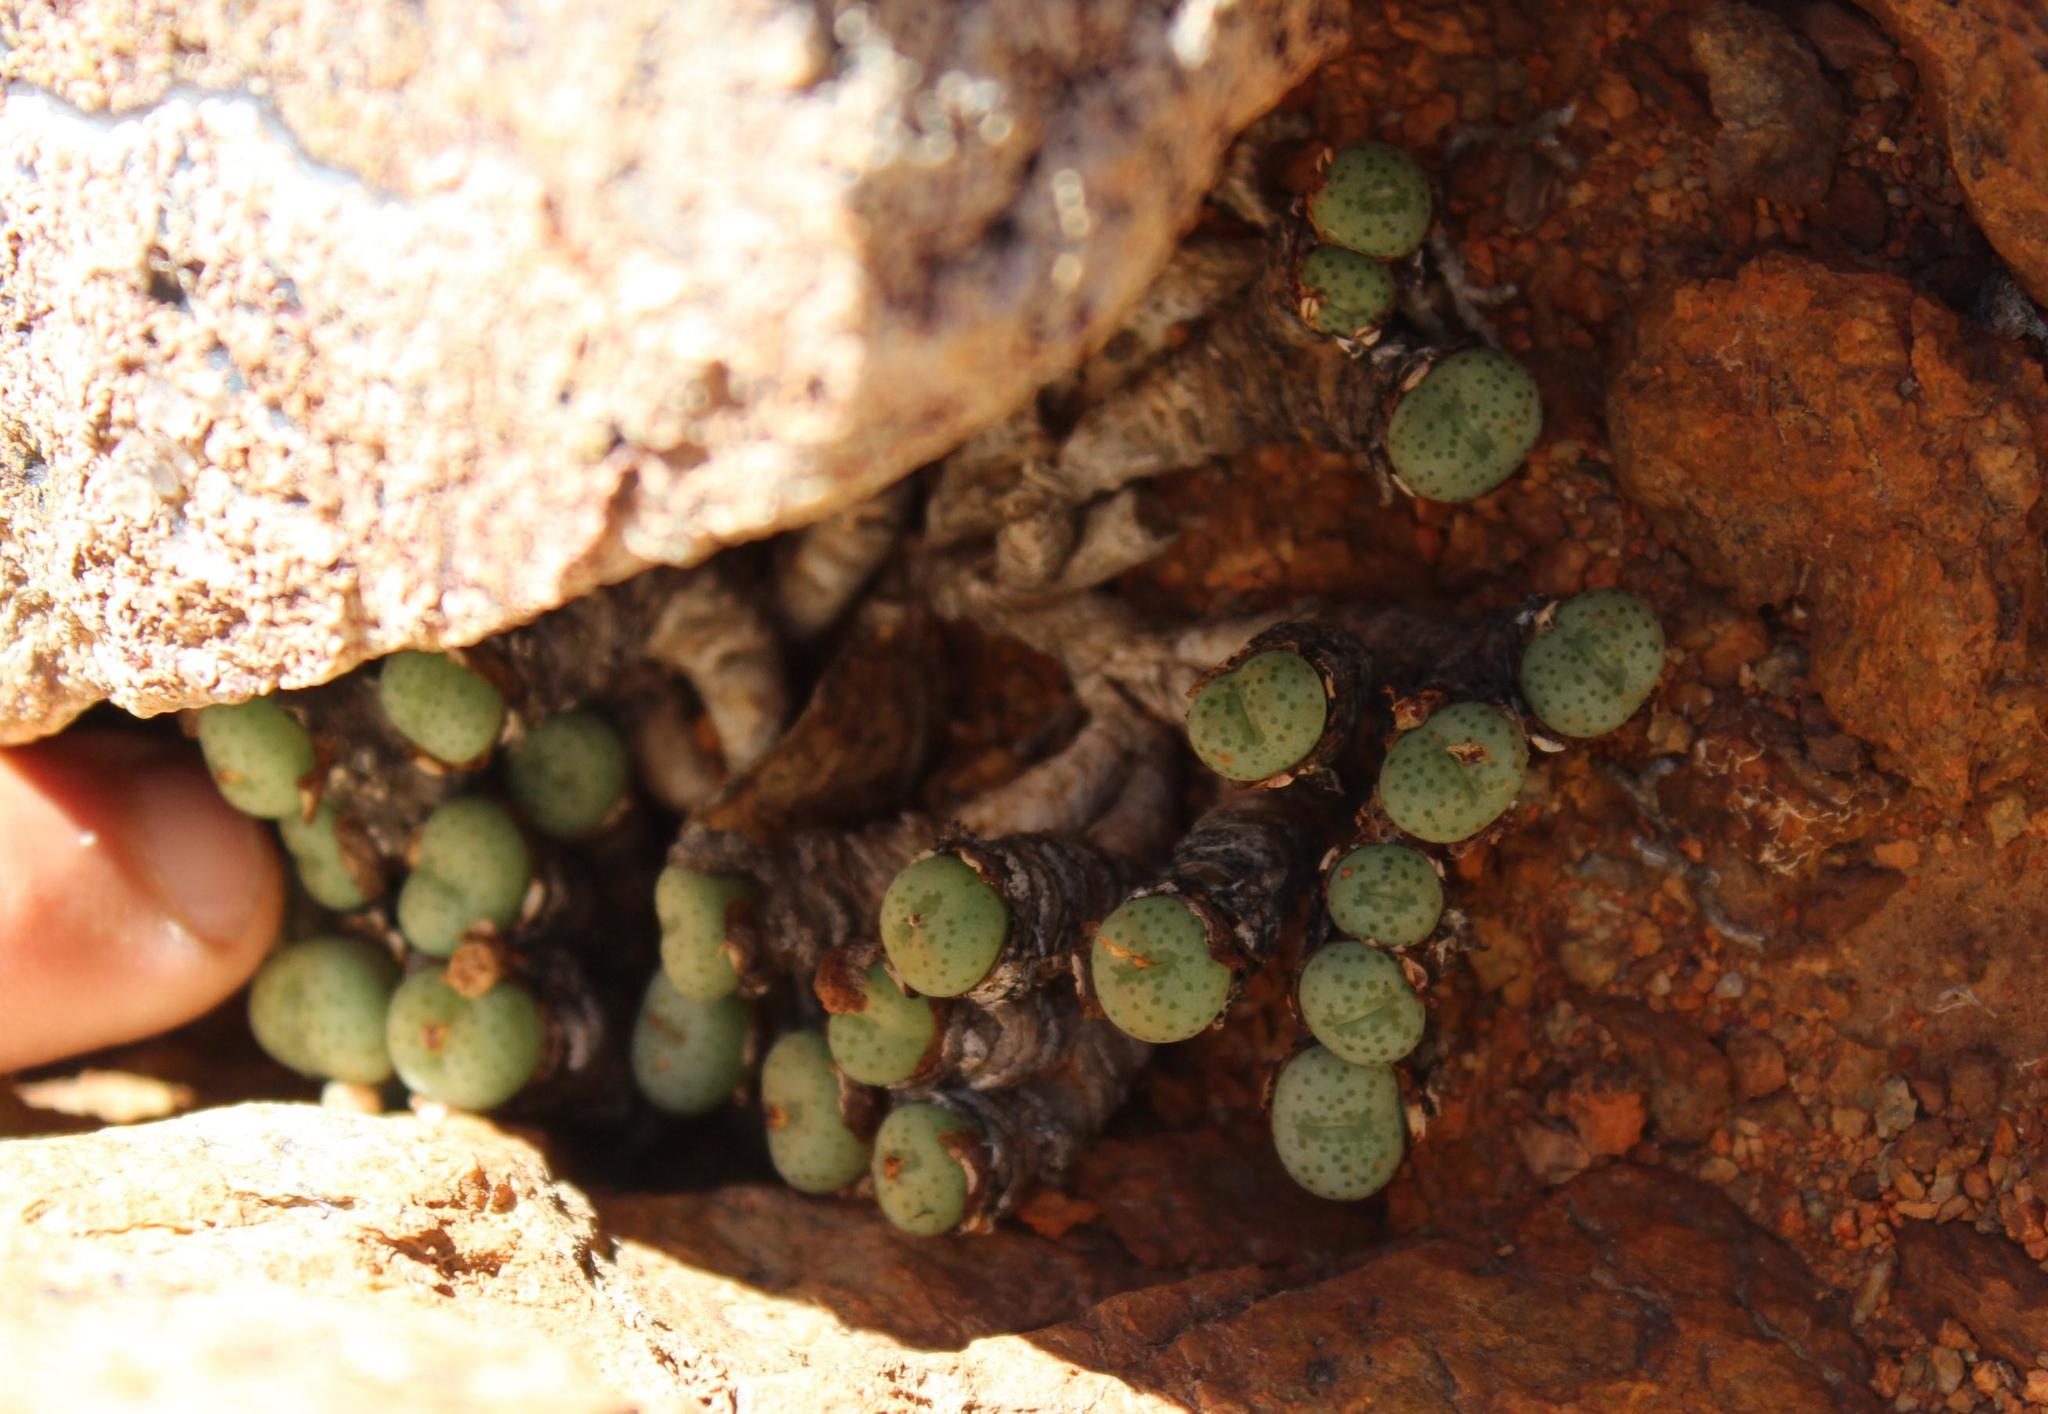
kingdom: Plantae
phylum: Tracheophyta
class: Magnoliopsida
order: Caryophyllales
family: Aizoaceae
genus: Conophytum
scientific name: Conophytum wettsteinii
